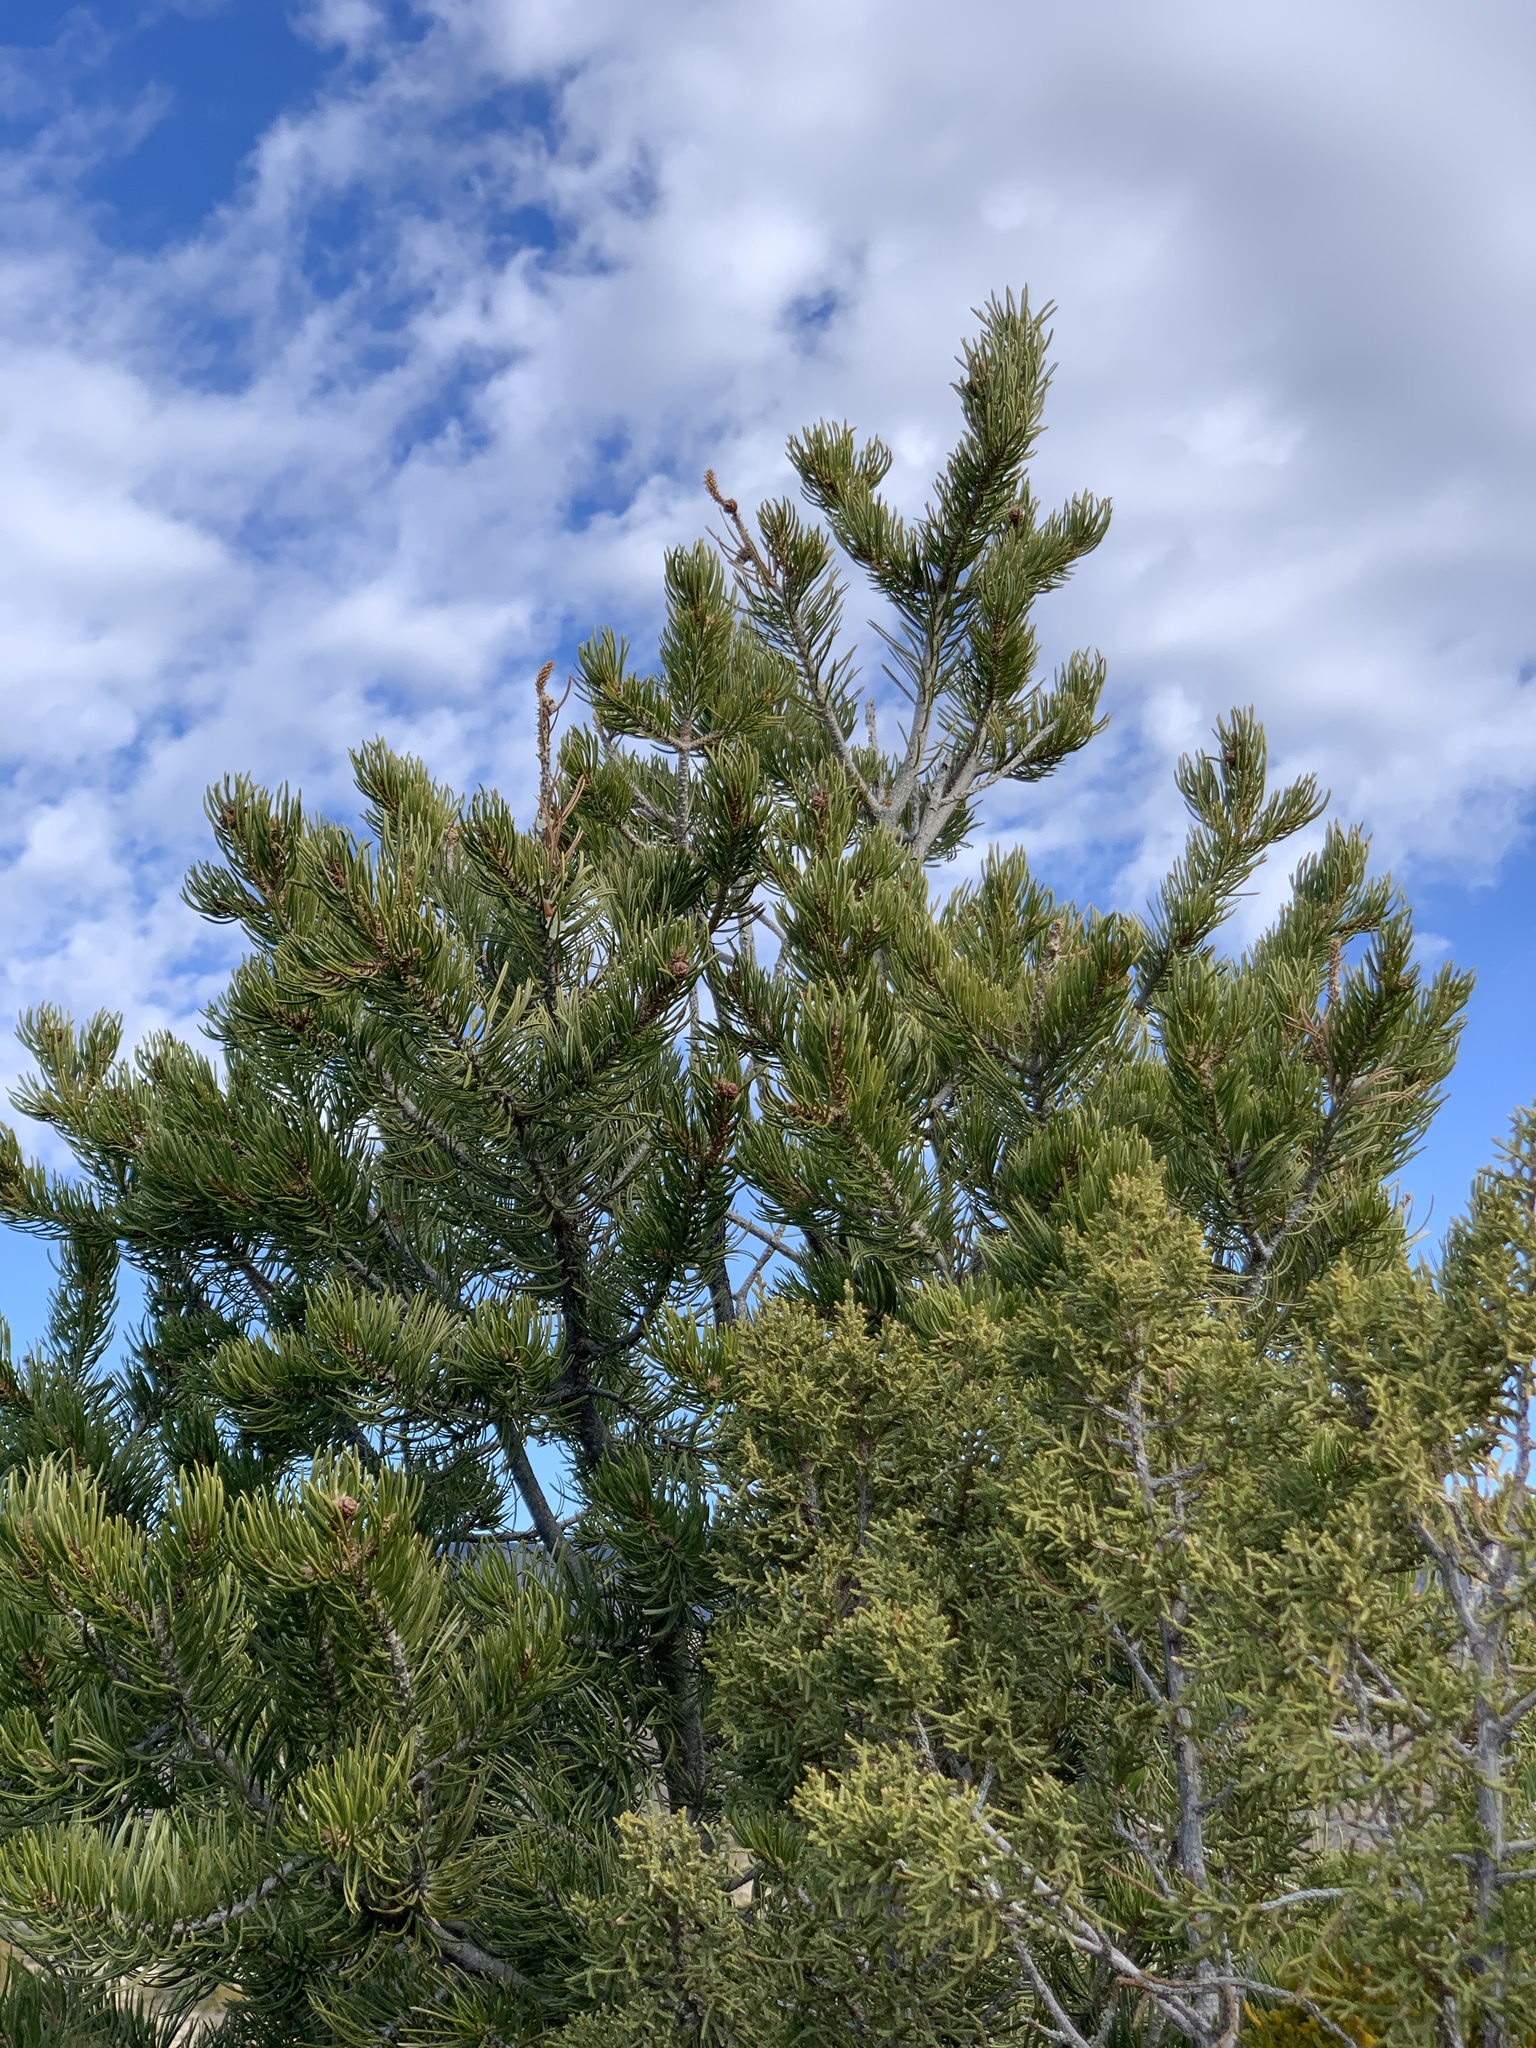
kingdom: Plantae
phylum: Tracheophyta
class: Pinopsida
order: Pinales
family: Pinaceae
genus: Pinus
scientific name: Pinus edulis
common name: Colorado pinyon
